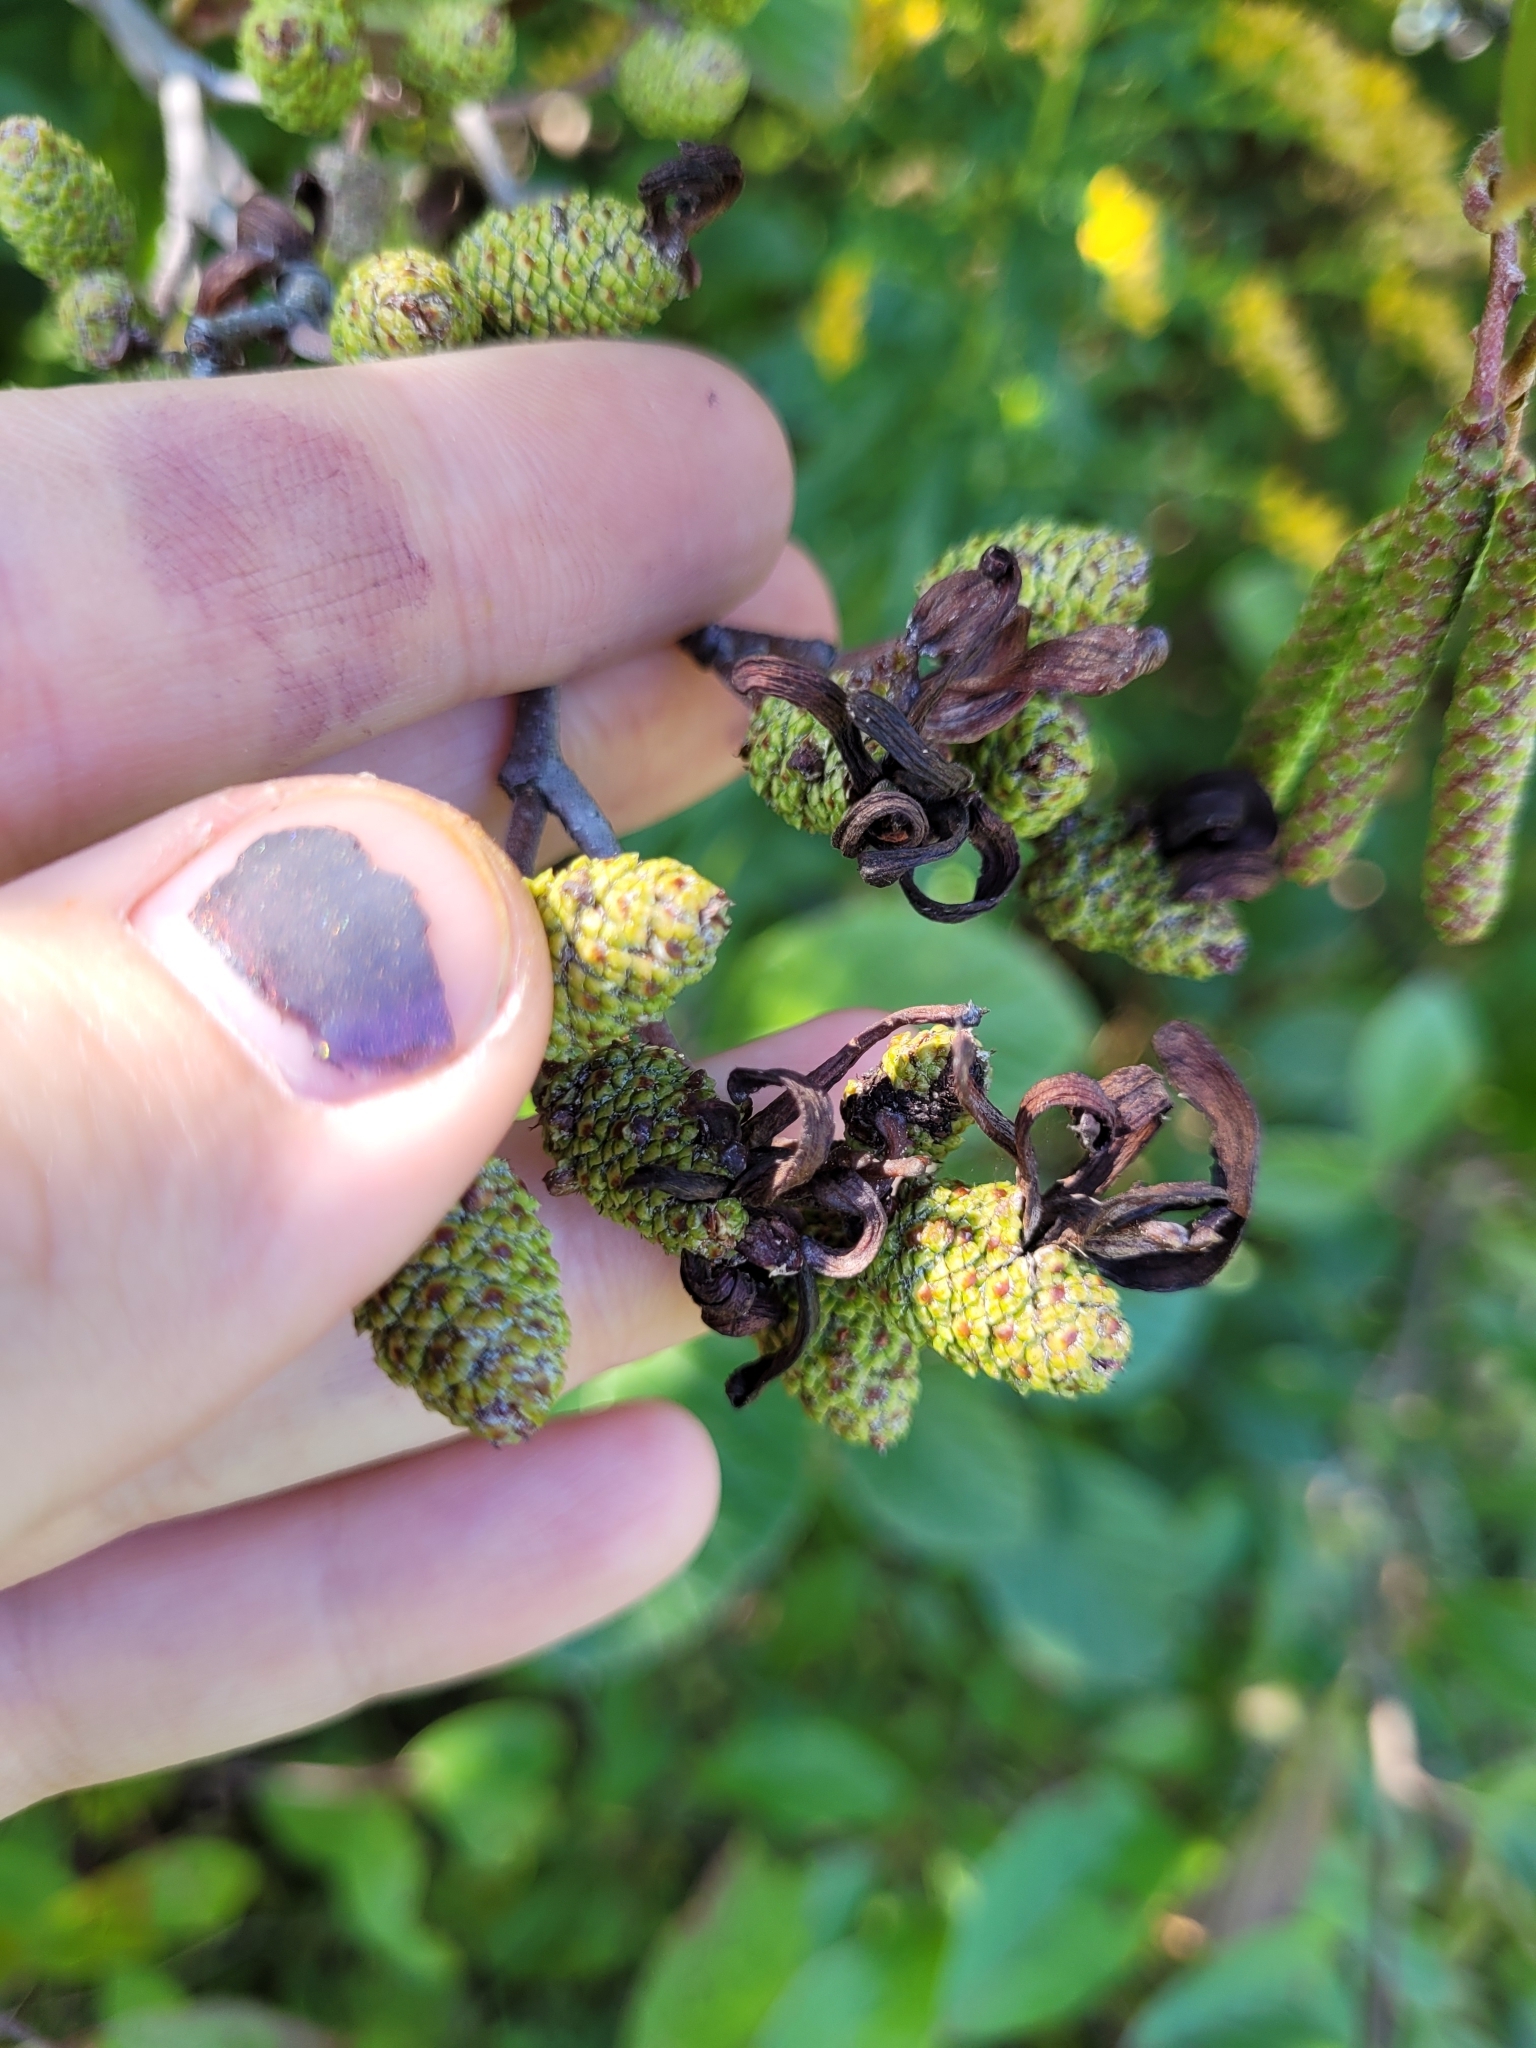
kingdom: Fungi
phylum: Ascomycota
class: Taphrinomycetes
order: Taphrinales
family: Taphrinaceae
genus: Taphrina
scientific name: Taphrina robinsoniana
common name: Eastern american alder tongue gall fungus
